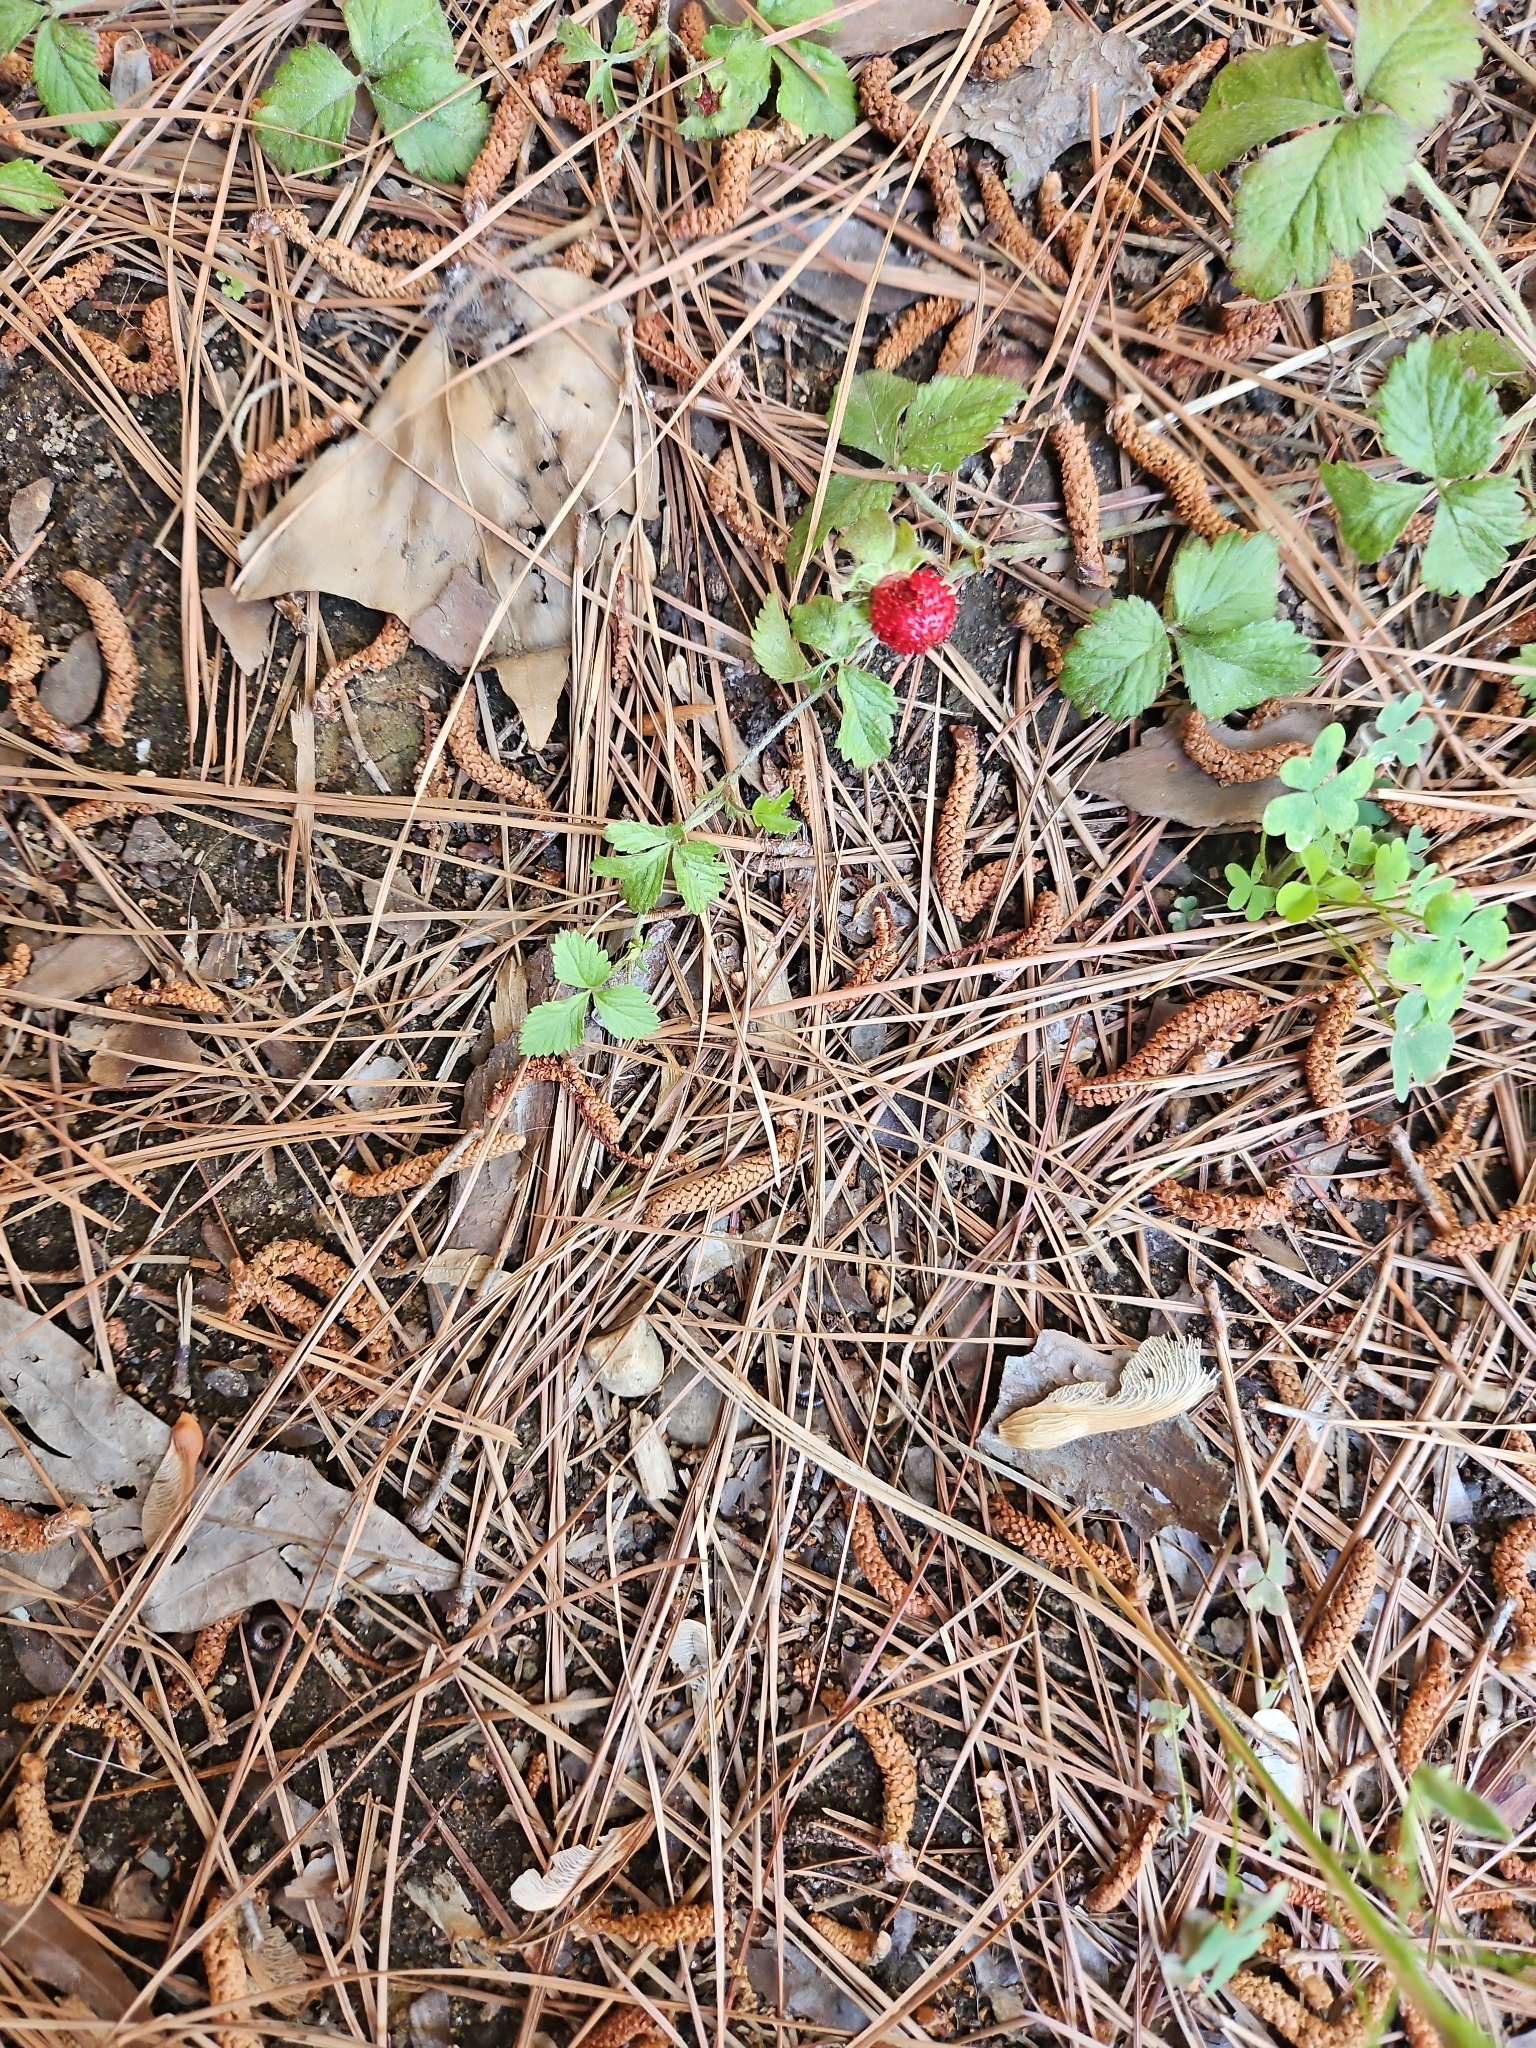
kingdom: Plantae
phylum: Tracheophyta
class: Magnoliopsida
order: Rosales
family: Rosaceae
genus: Potentilla
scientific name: Potentilla indica
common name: Yellow-flowered strawberry
